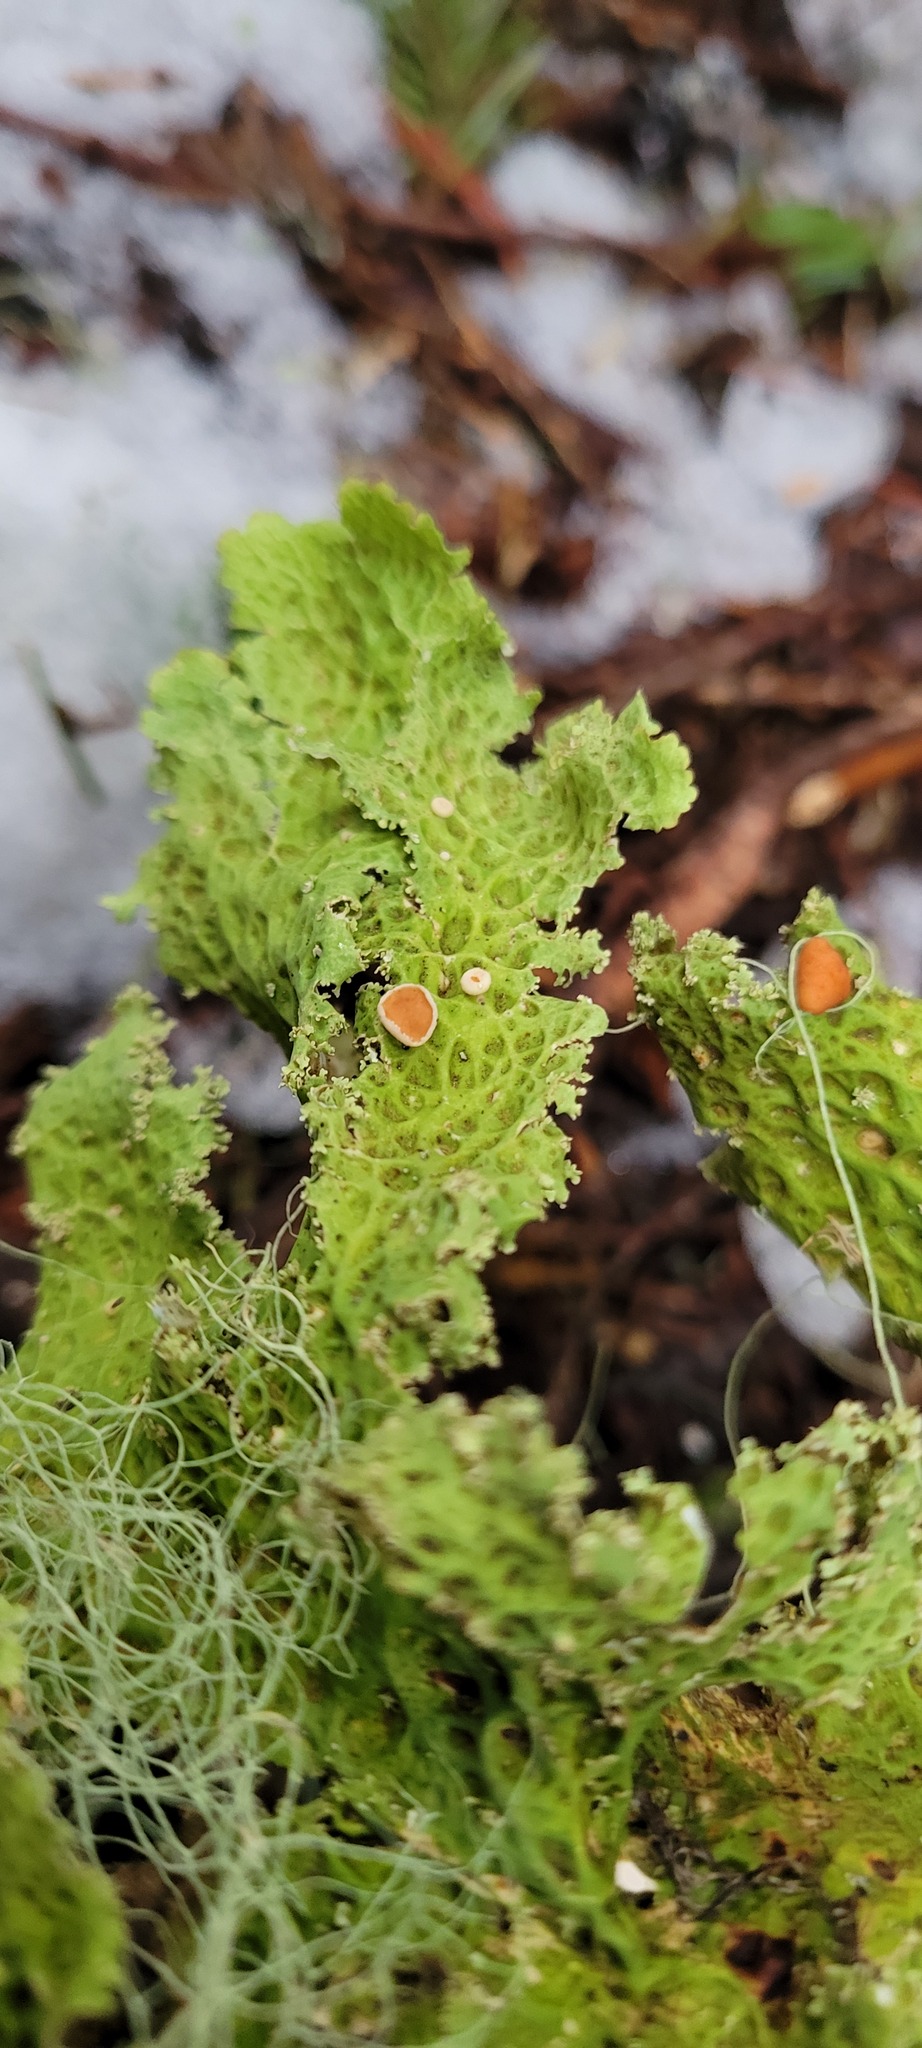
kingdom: Fungi
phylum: Ascomycota
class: Lecanoromycetes
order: Peltigerales
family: Lobariaceae
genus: Lobaria
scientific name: Lobaria oregana
